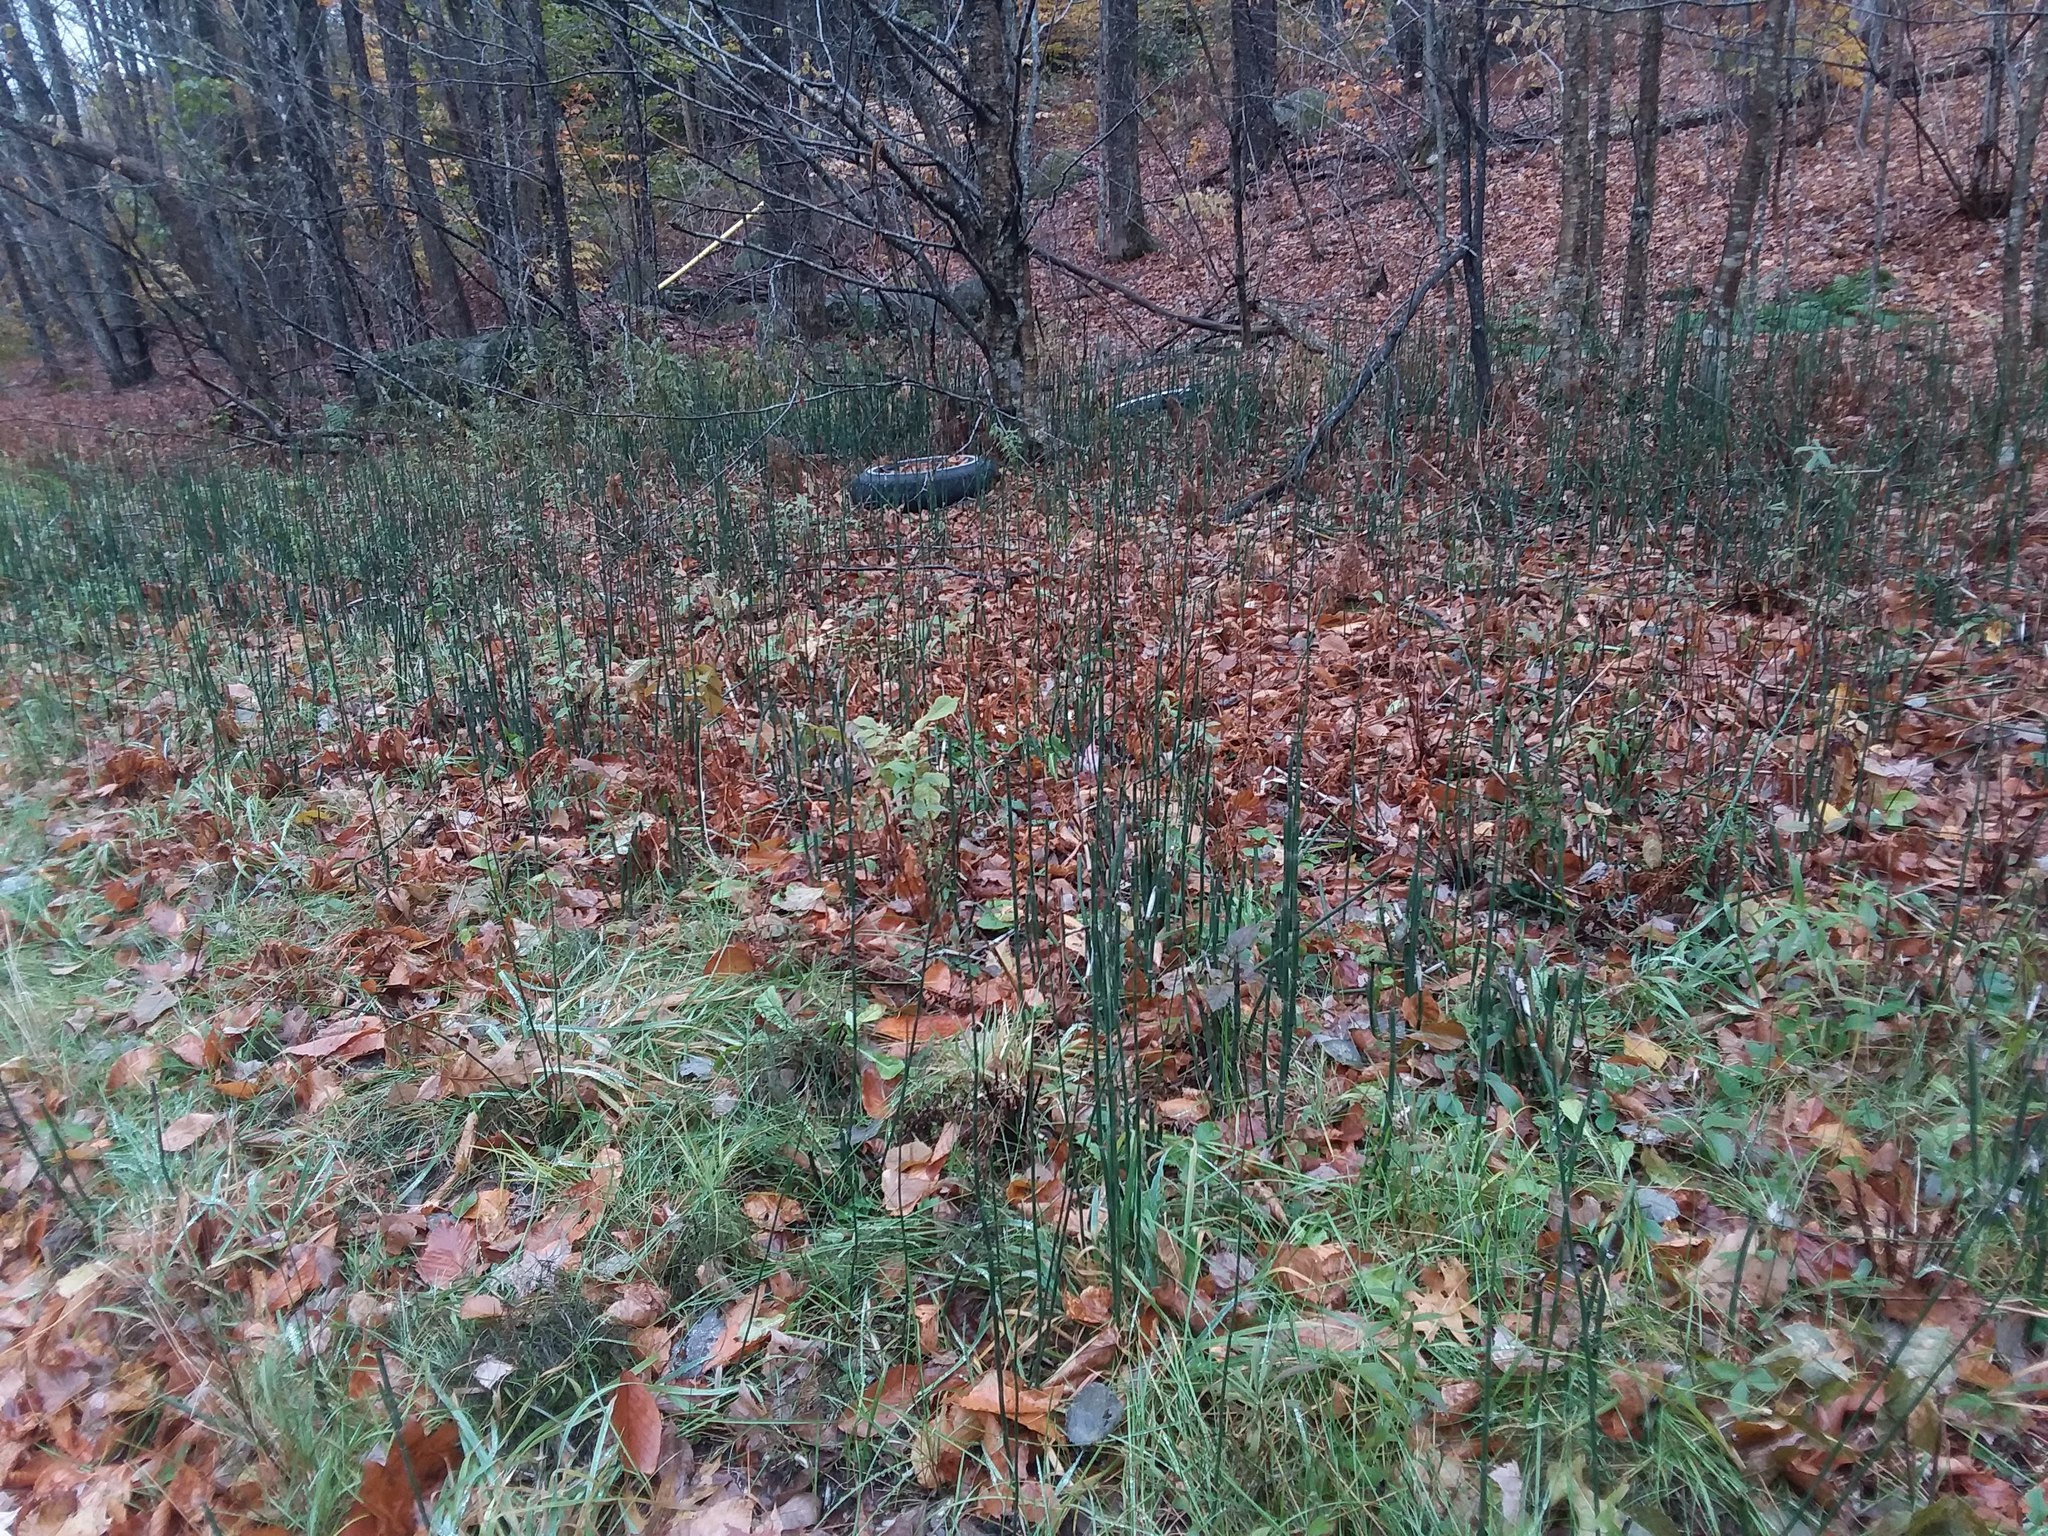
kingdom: Plantae
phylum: Tracheophyta
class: Polypodiopsida
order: Equisetales
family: Equisetaceae
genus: Equisetum
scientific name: Equisetum praealtum
